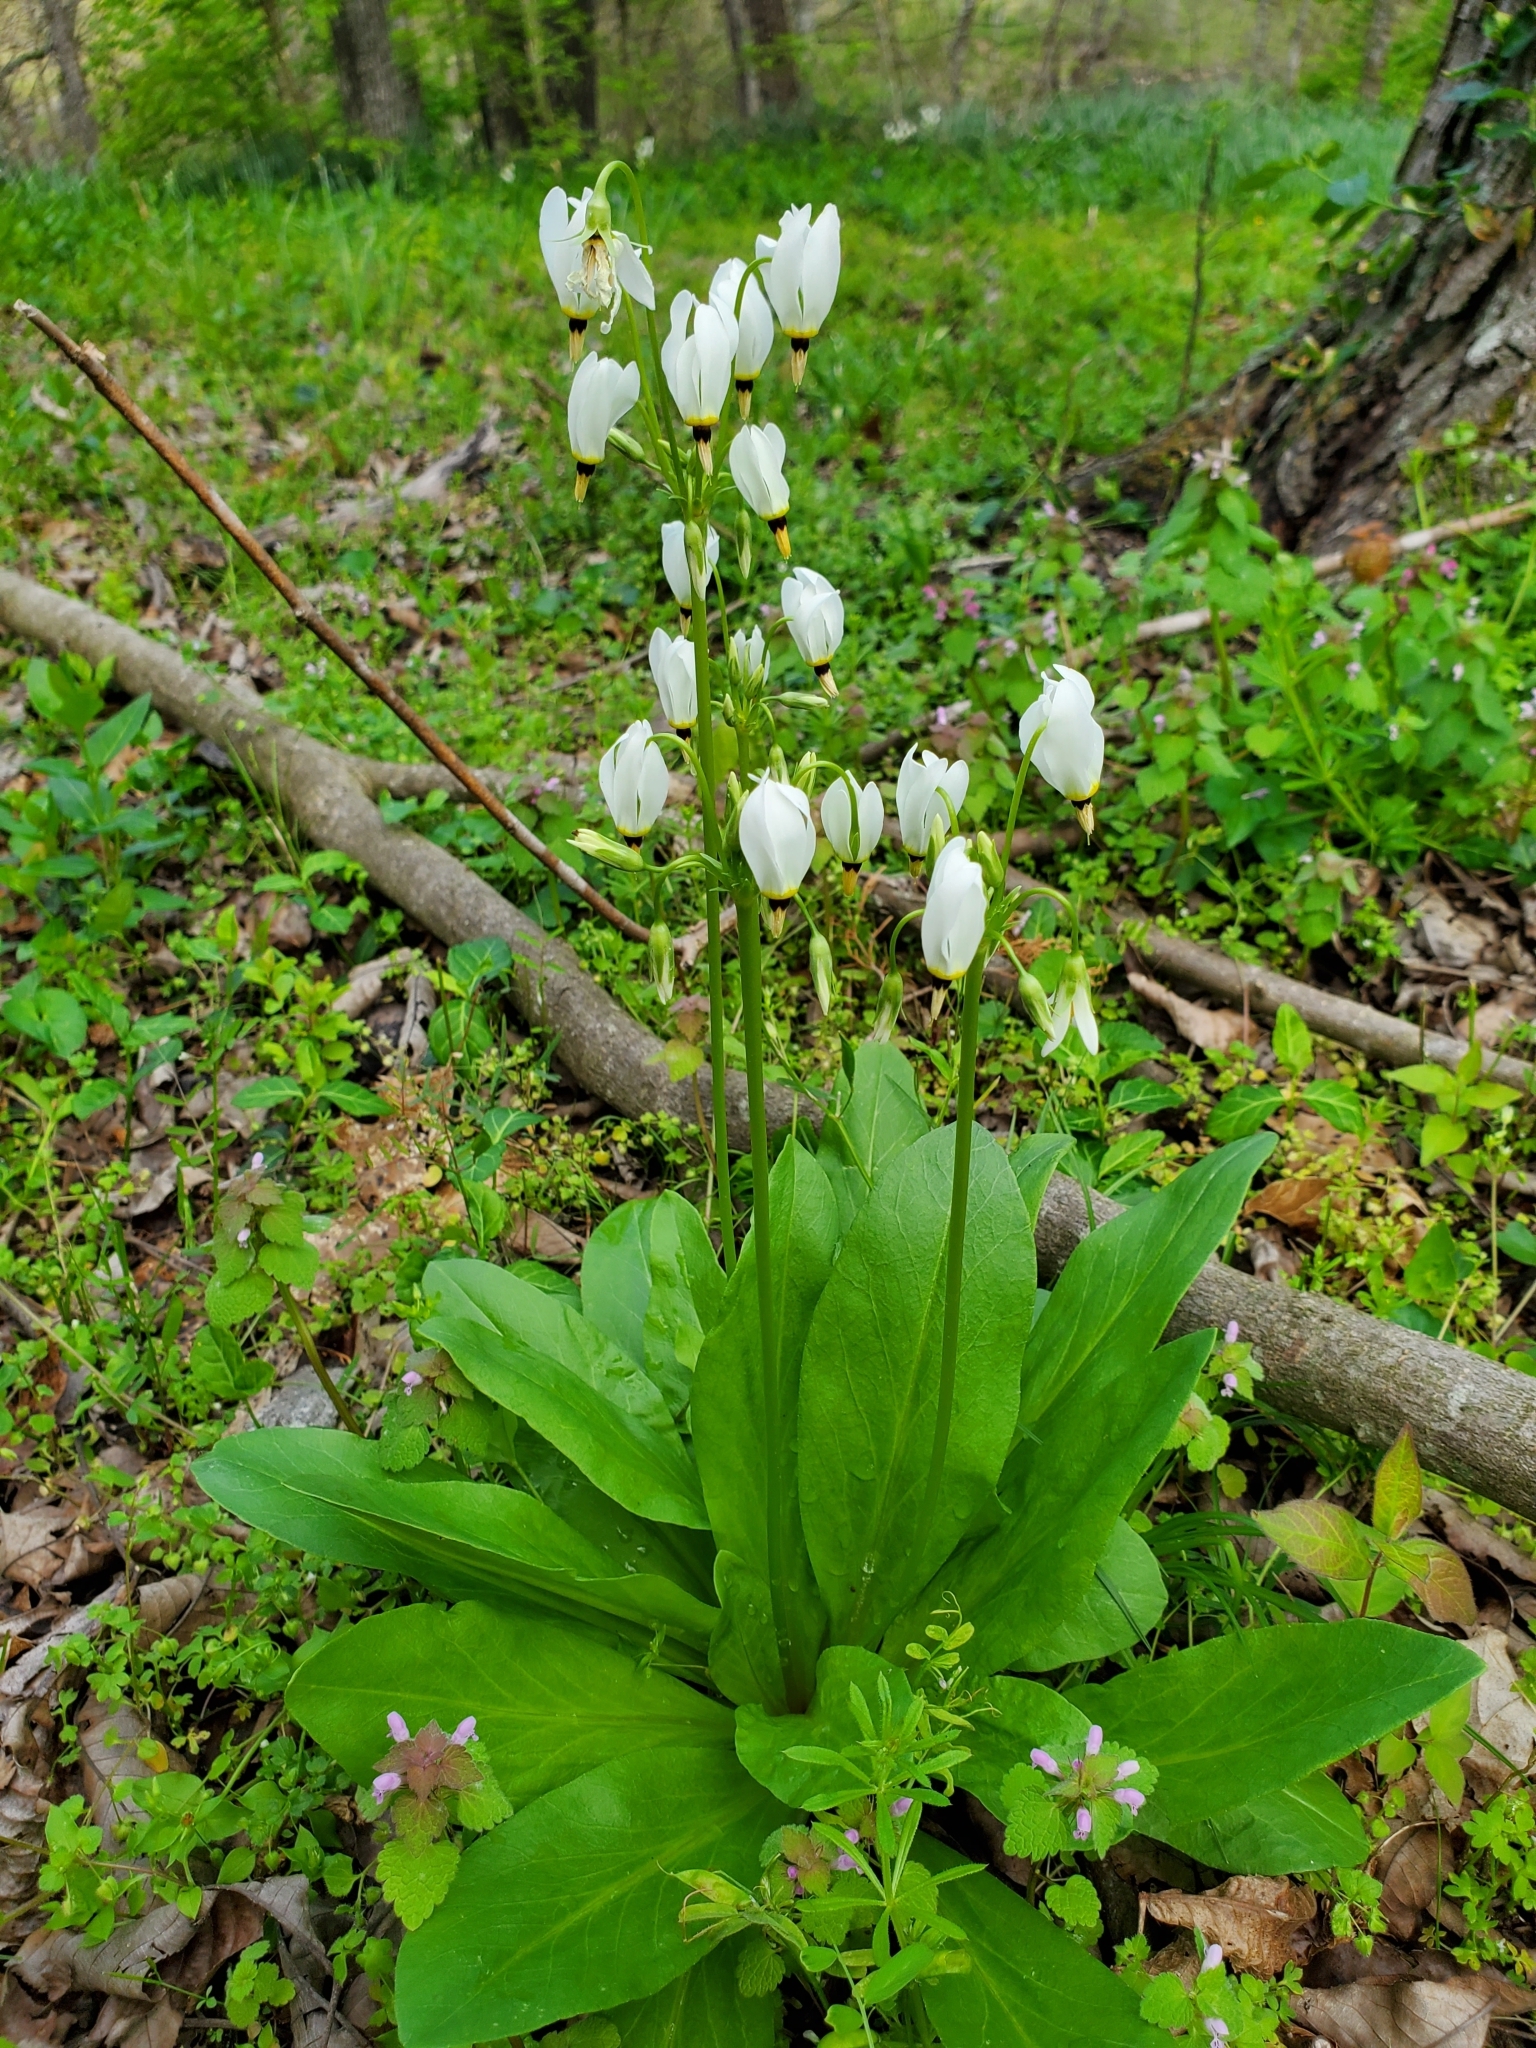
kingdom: Plantae
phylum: Tracheophyta
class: Magnoliopsida
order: Ericales
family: Primulaceae
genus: Dodecatheon
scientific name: Dodecatheon meadia
